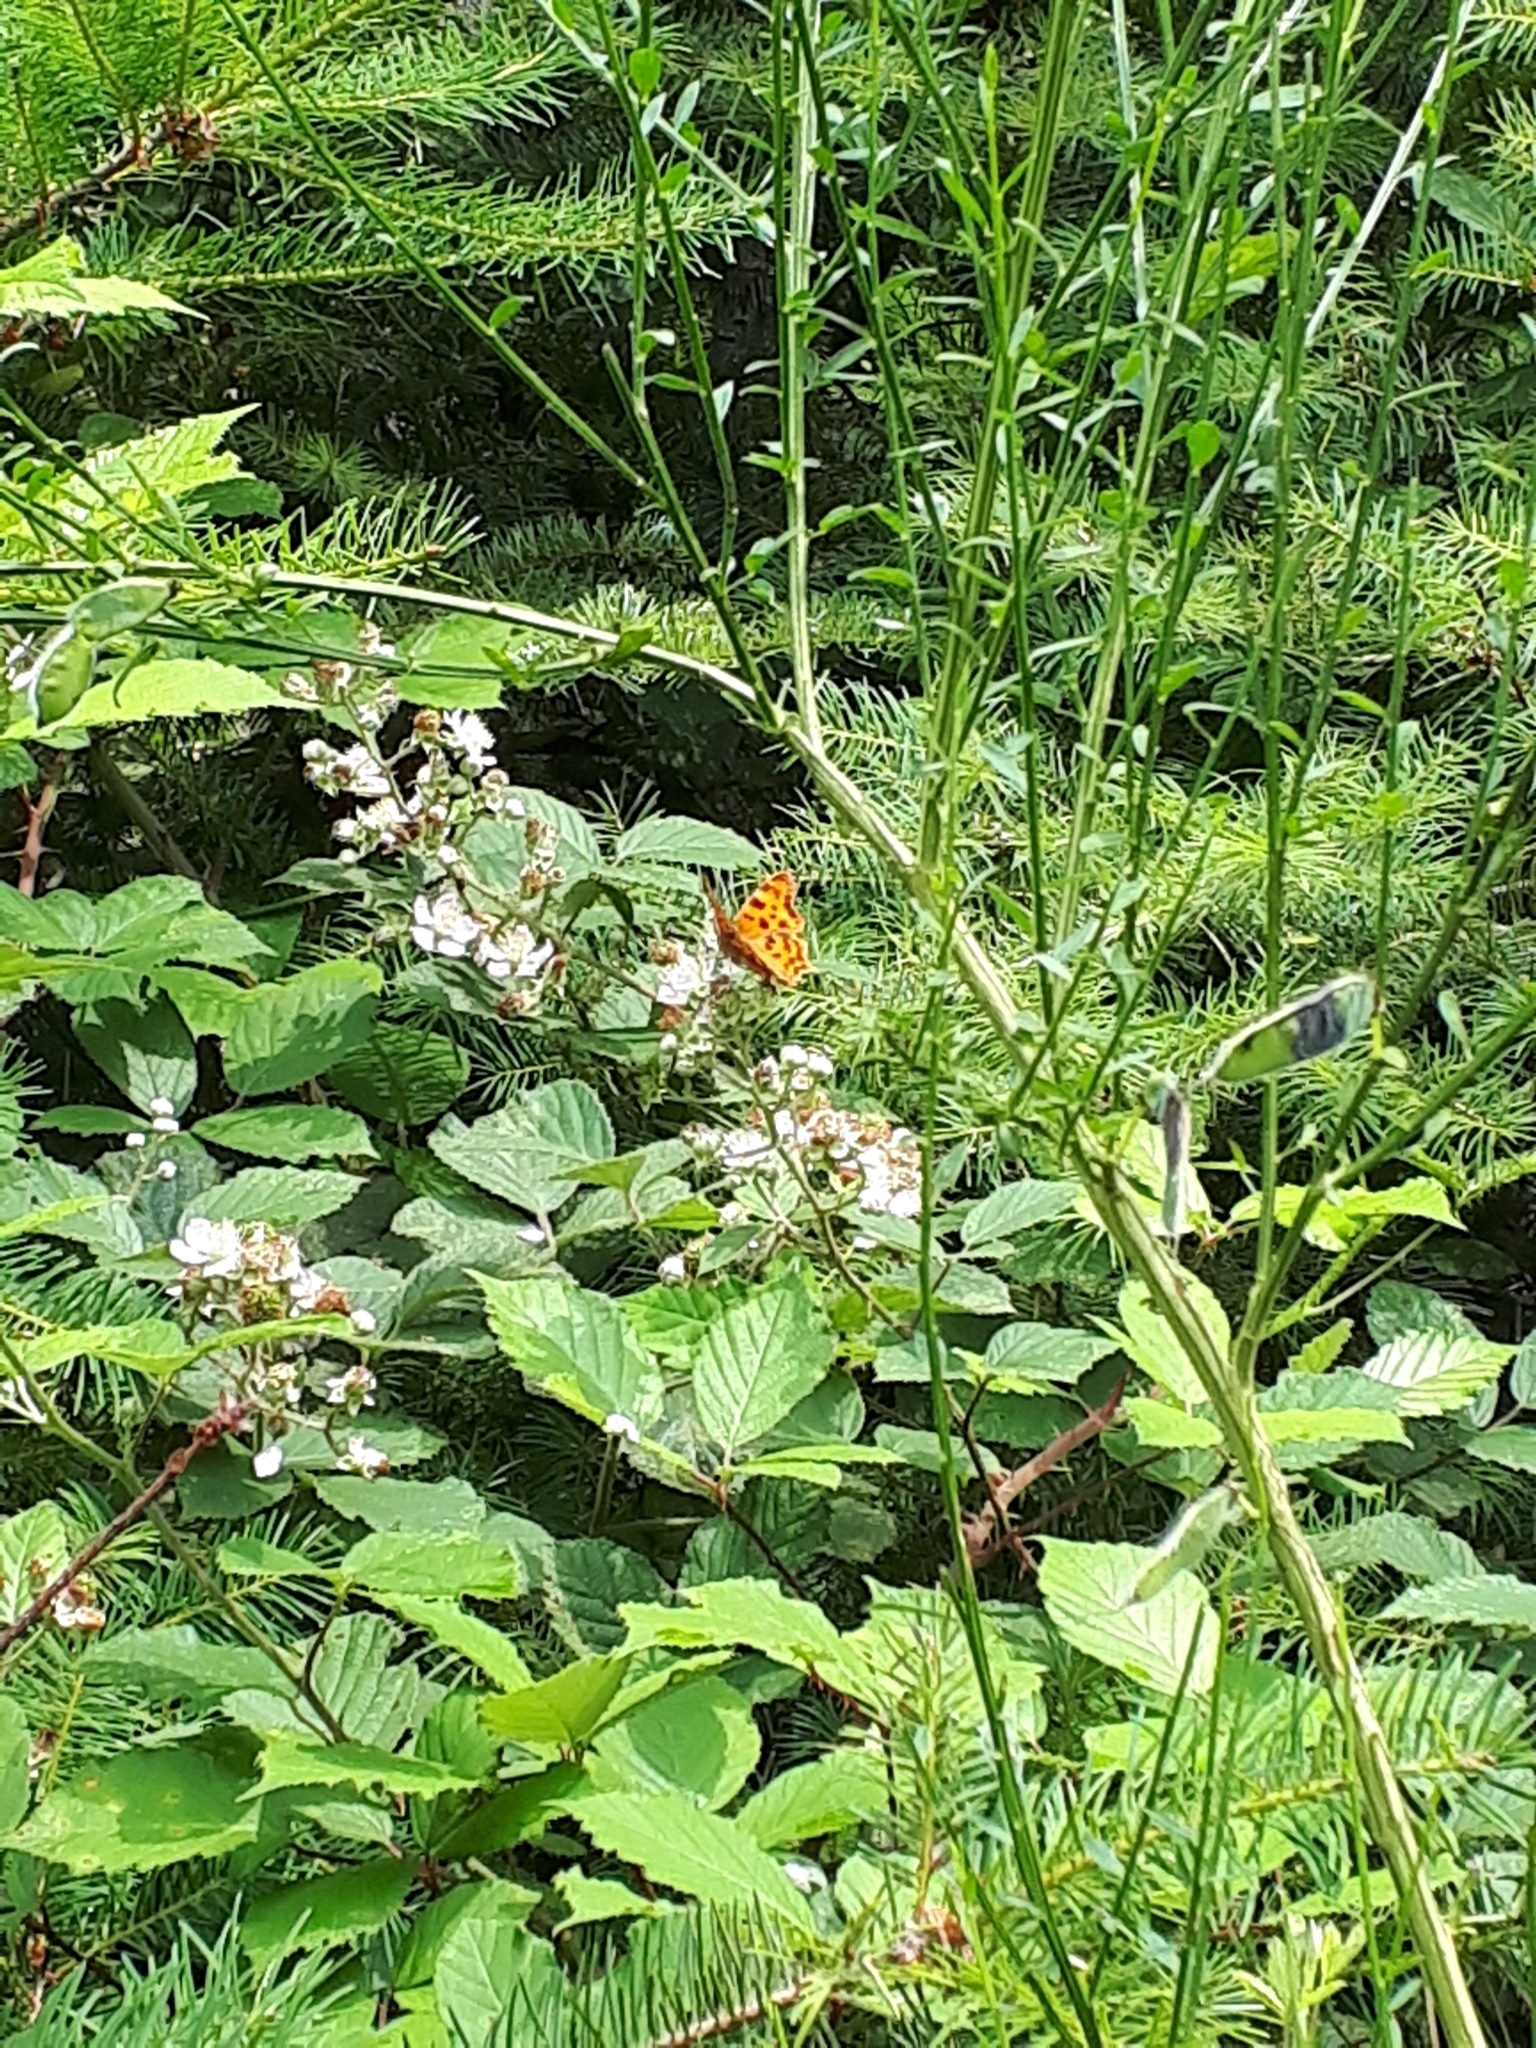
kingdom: Animalia
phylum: Arthropoda
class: Insecta
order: Lepidoptera
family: Nymphalidae
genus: Polygonia
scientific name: Polygonia c-album
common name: Comma
